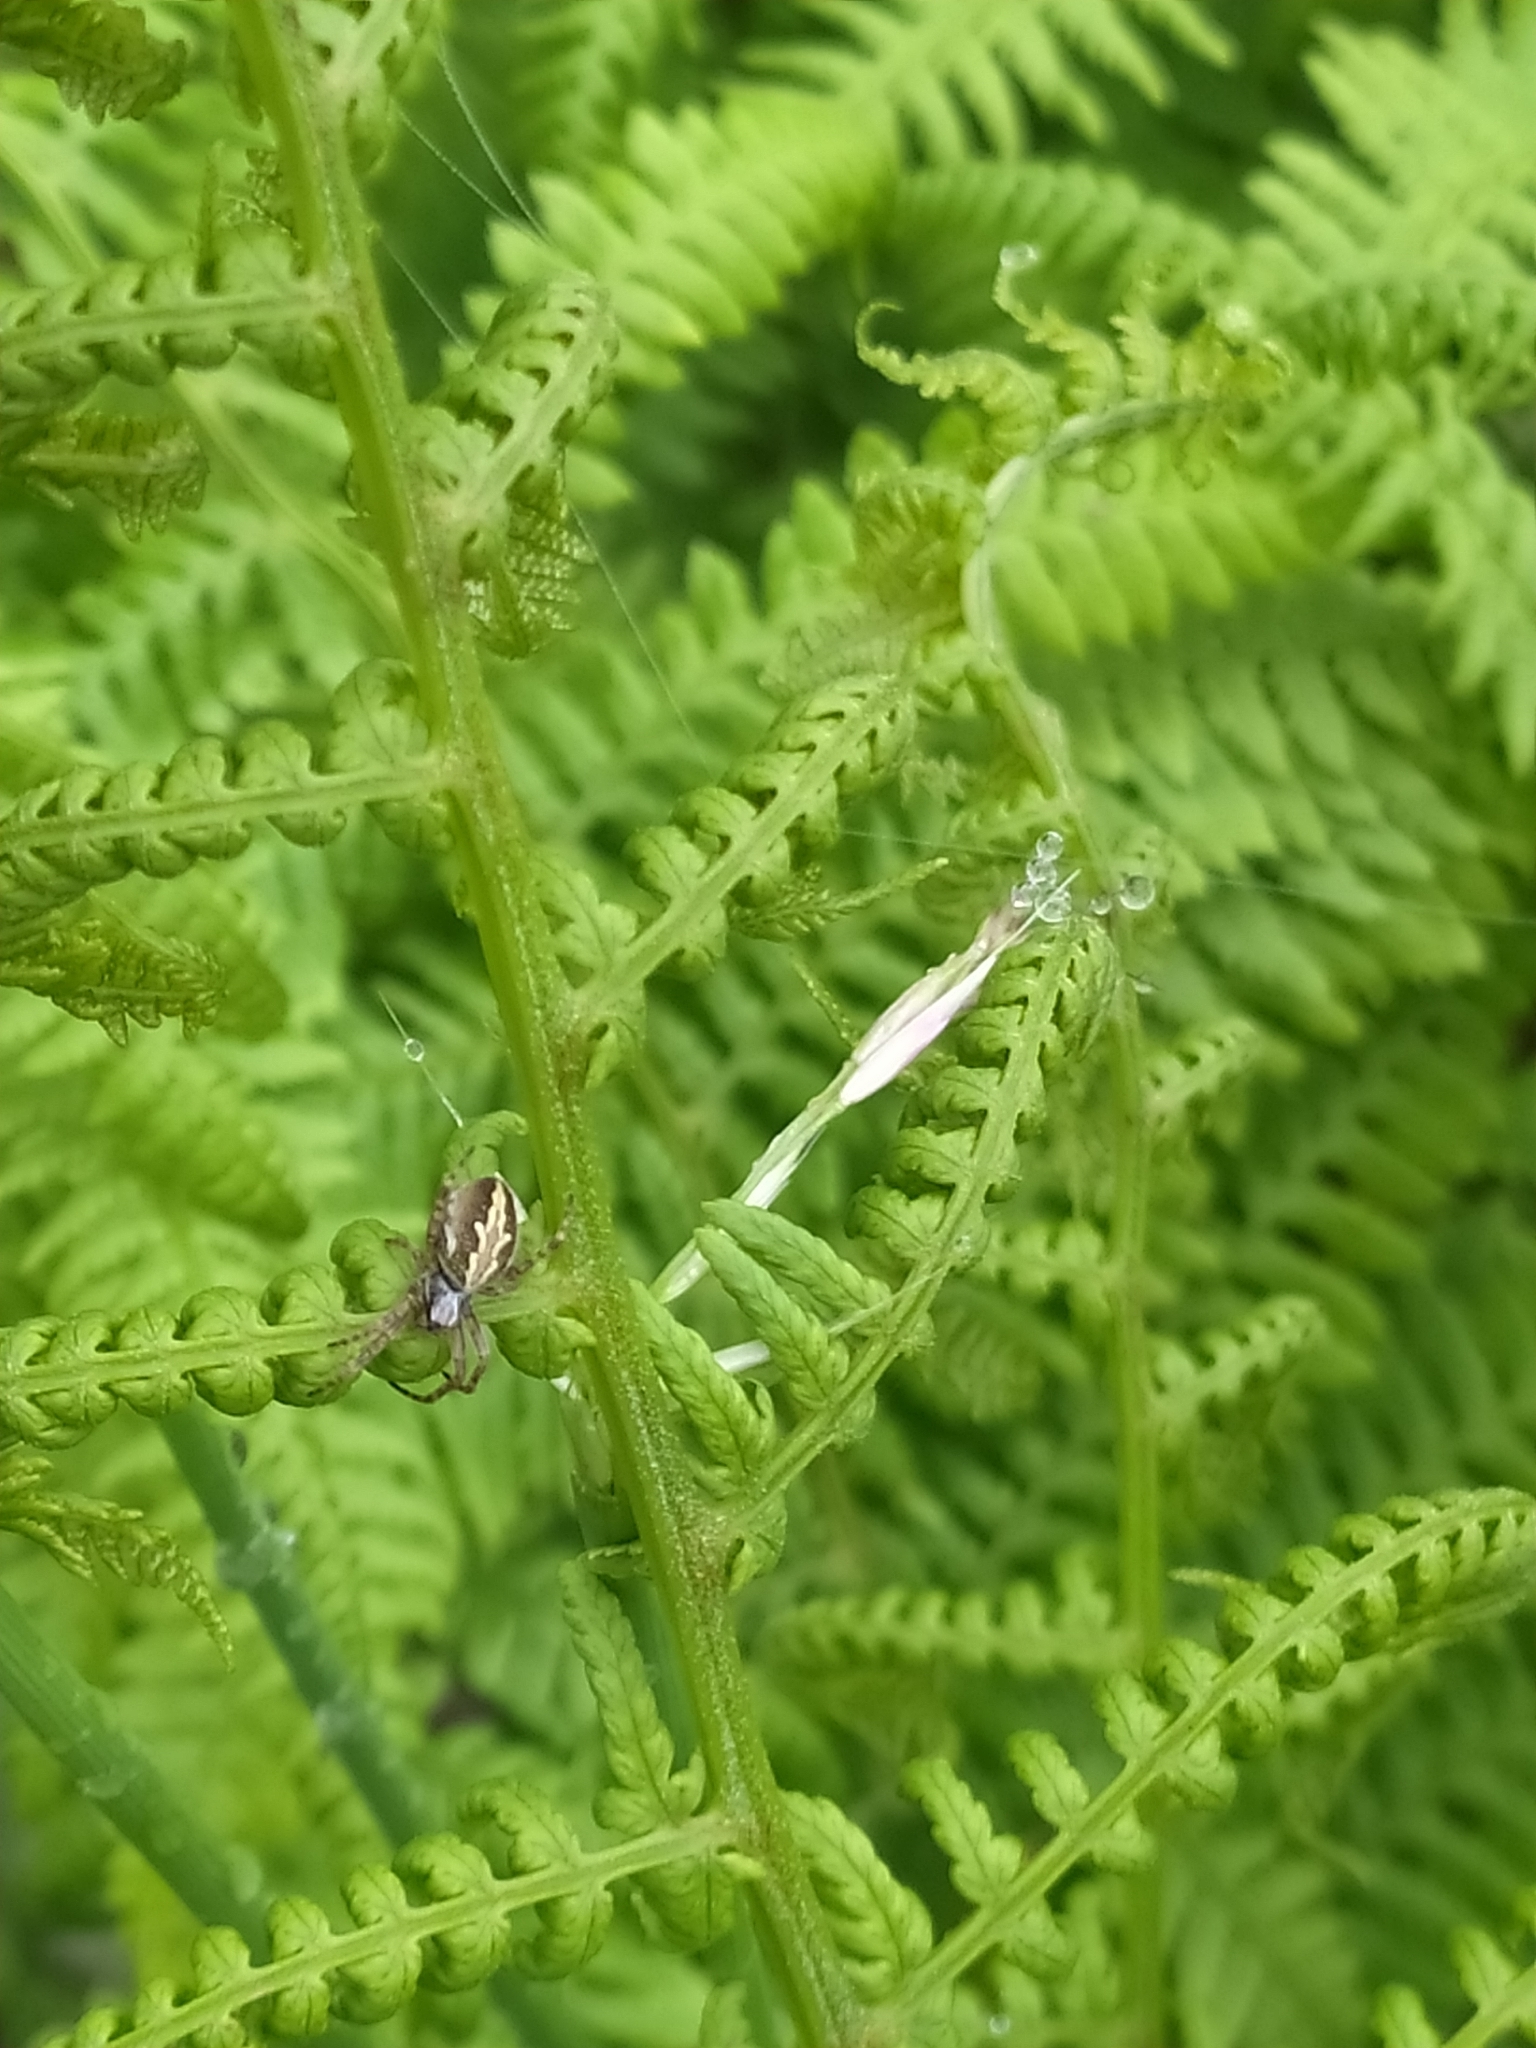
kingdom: Animalia
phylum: Arthropoda
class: Arachnida
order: Araneae
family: Araneidae
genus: Aculepeira
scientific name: Aculepeira ceropegia
